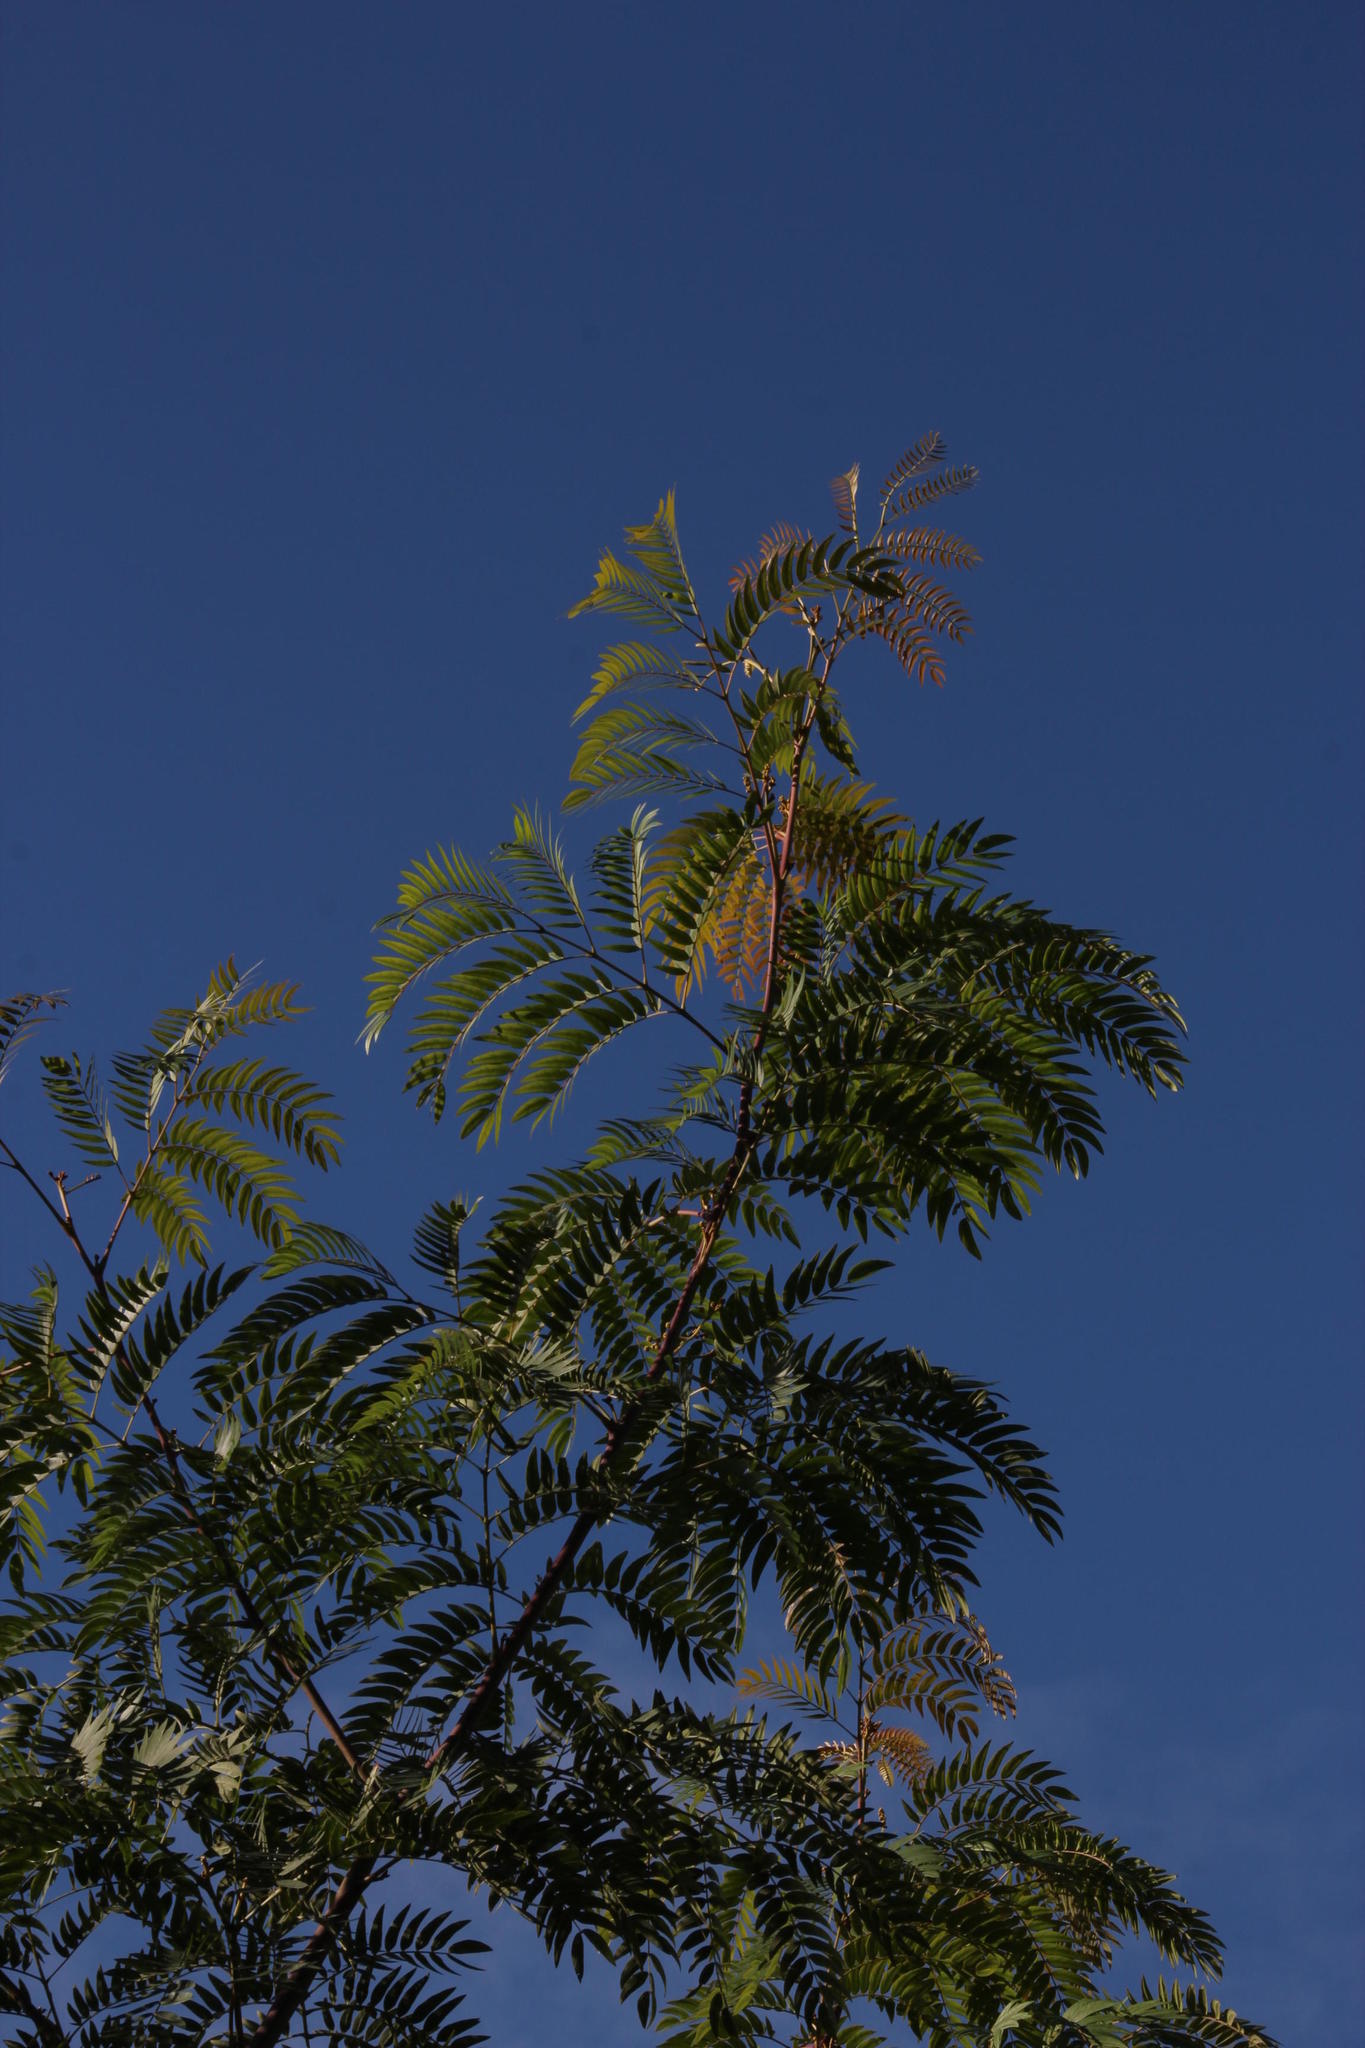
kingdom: Plantae
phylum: Tracheophyta
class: Magnoliopsida
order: Fabales
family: Fabaceae
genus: Acacia
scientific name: Acacia elata
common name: Cedar wattle
